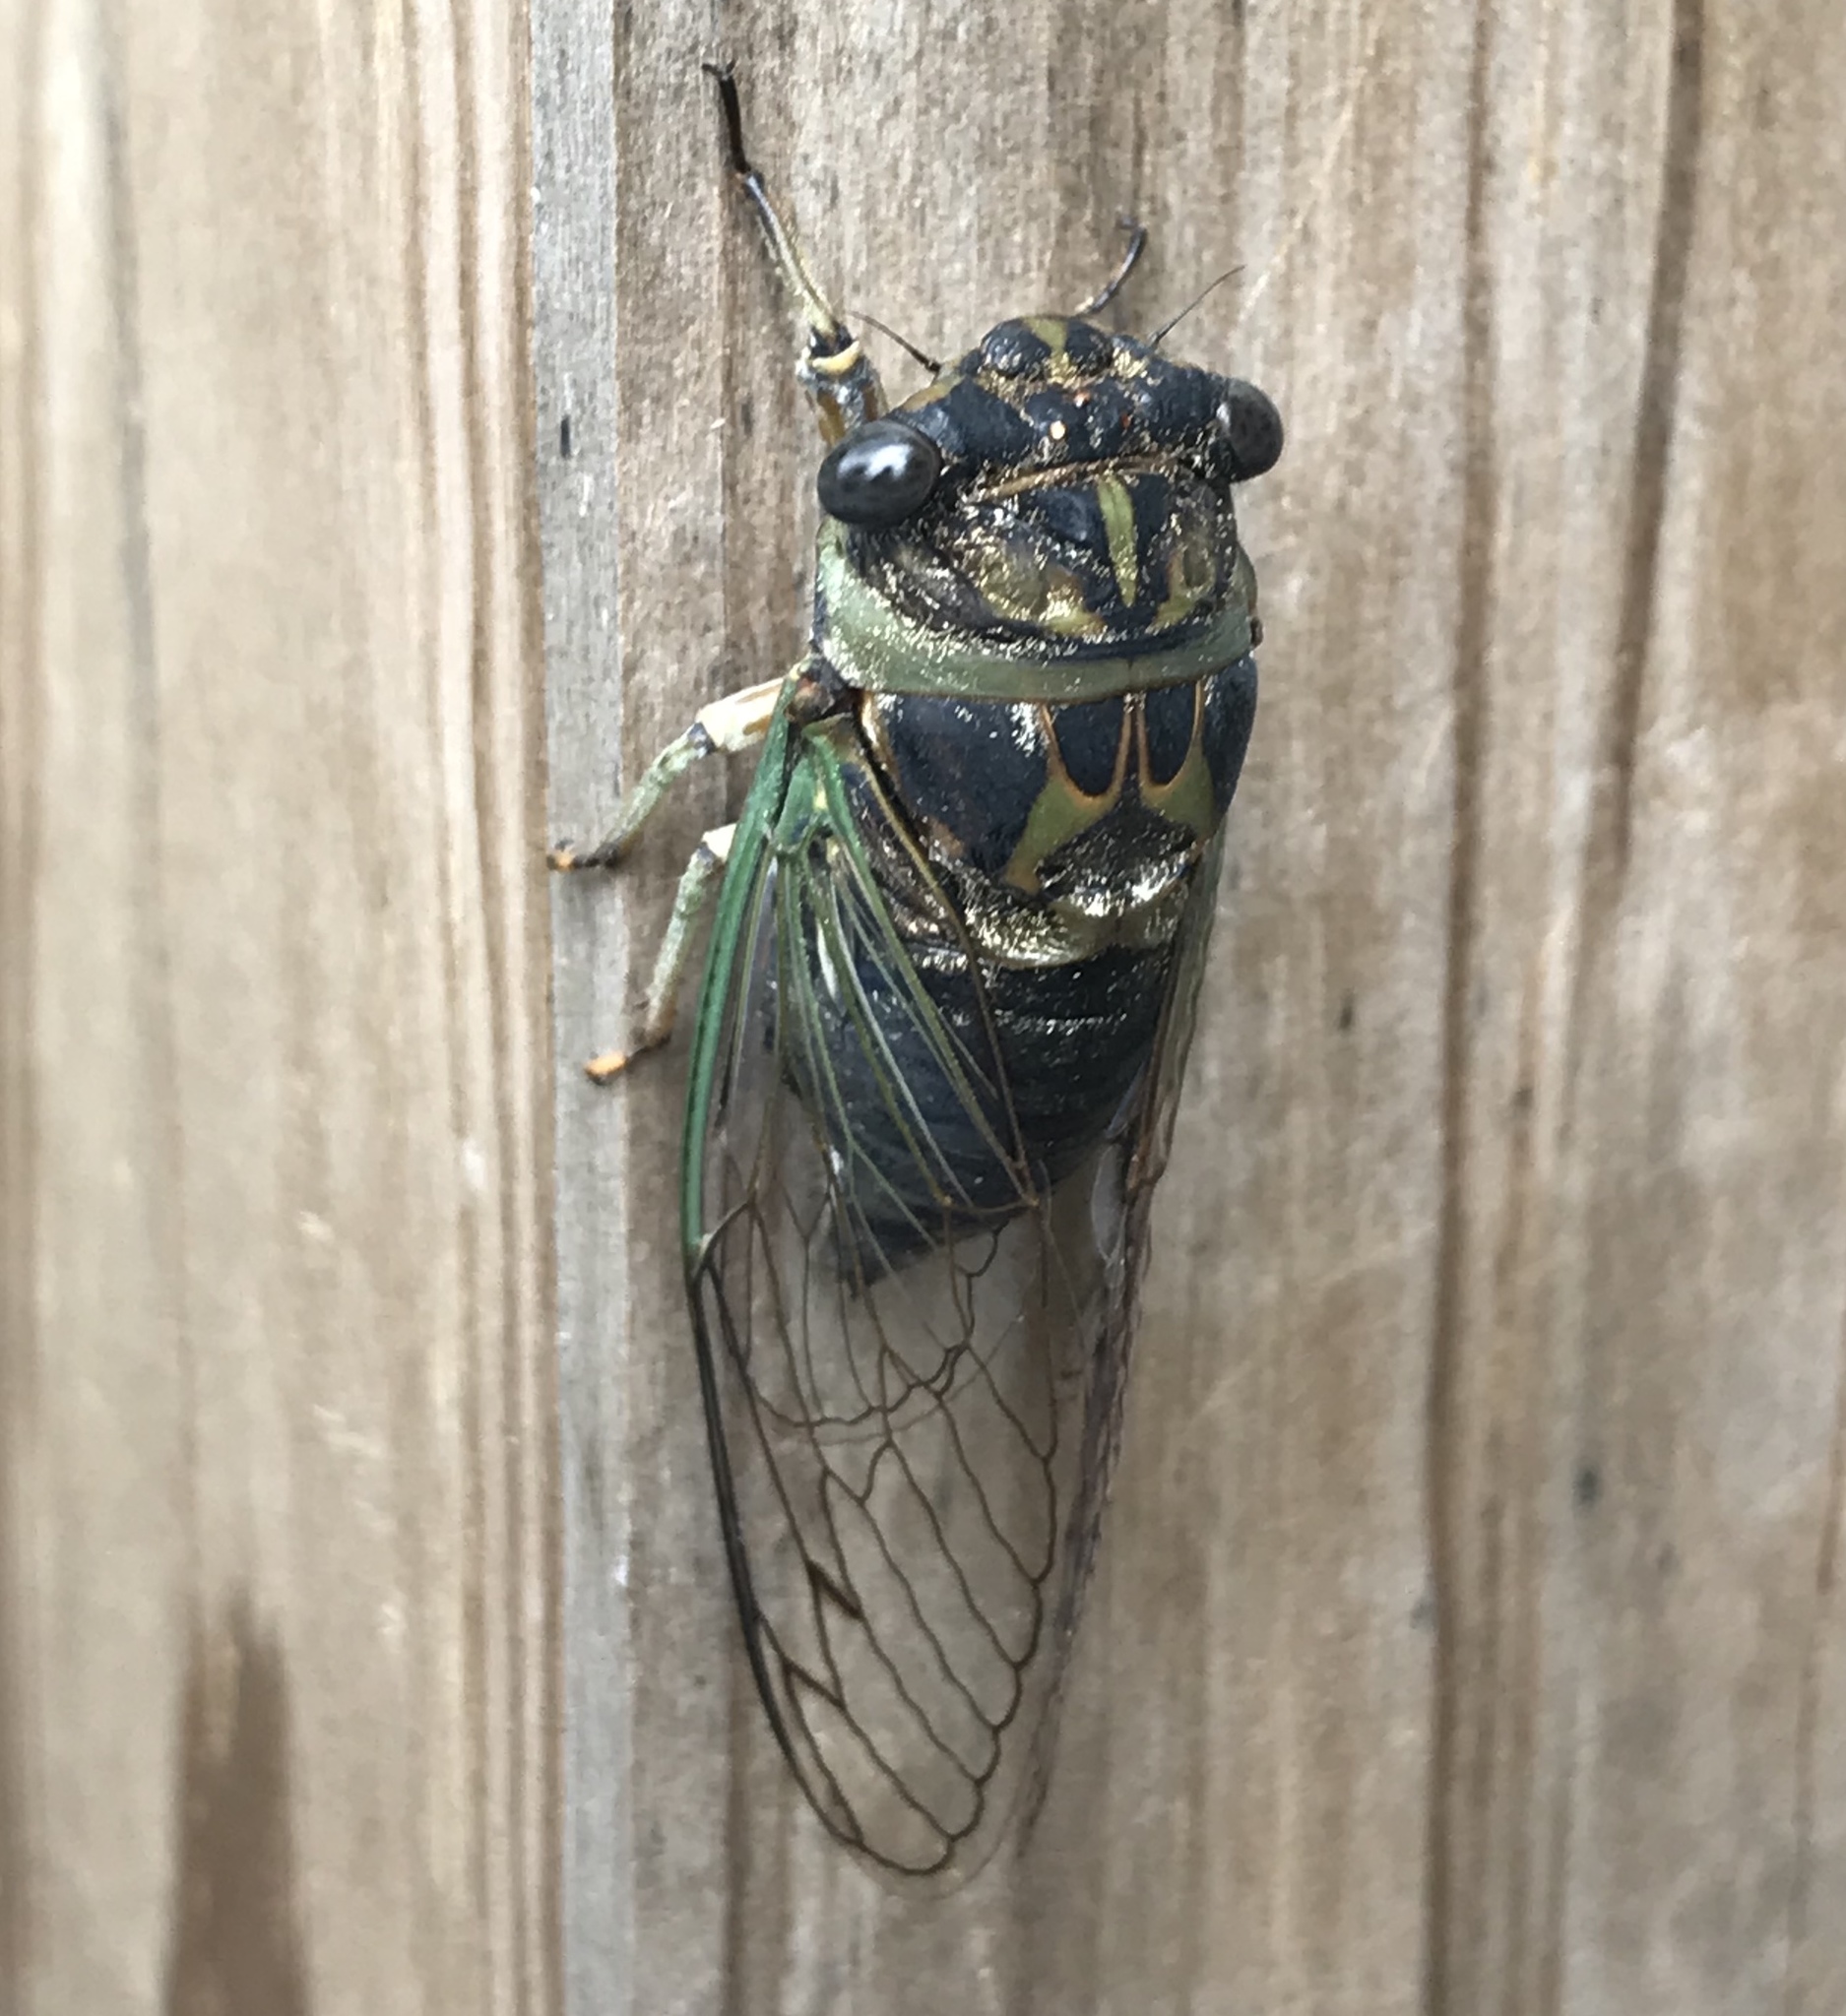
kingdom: Animalia
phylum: Arthropoda
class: Insecta
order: Hemiptera
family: Cicadidae
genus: Neotibicen
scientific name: Neotibicen canicularis
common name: God-day cicada
